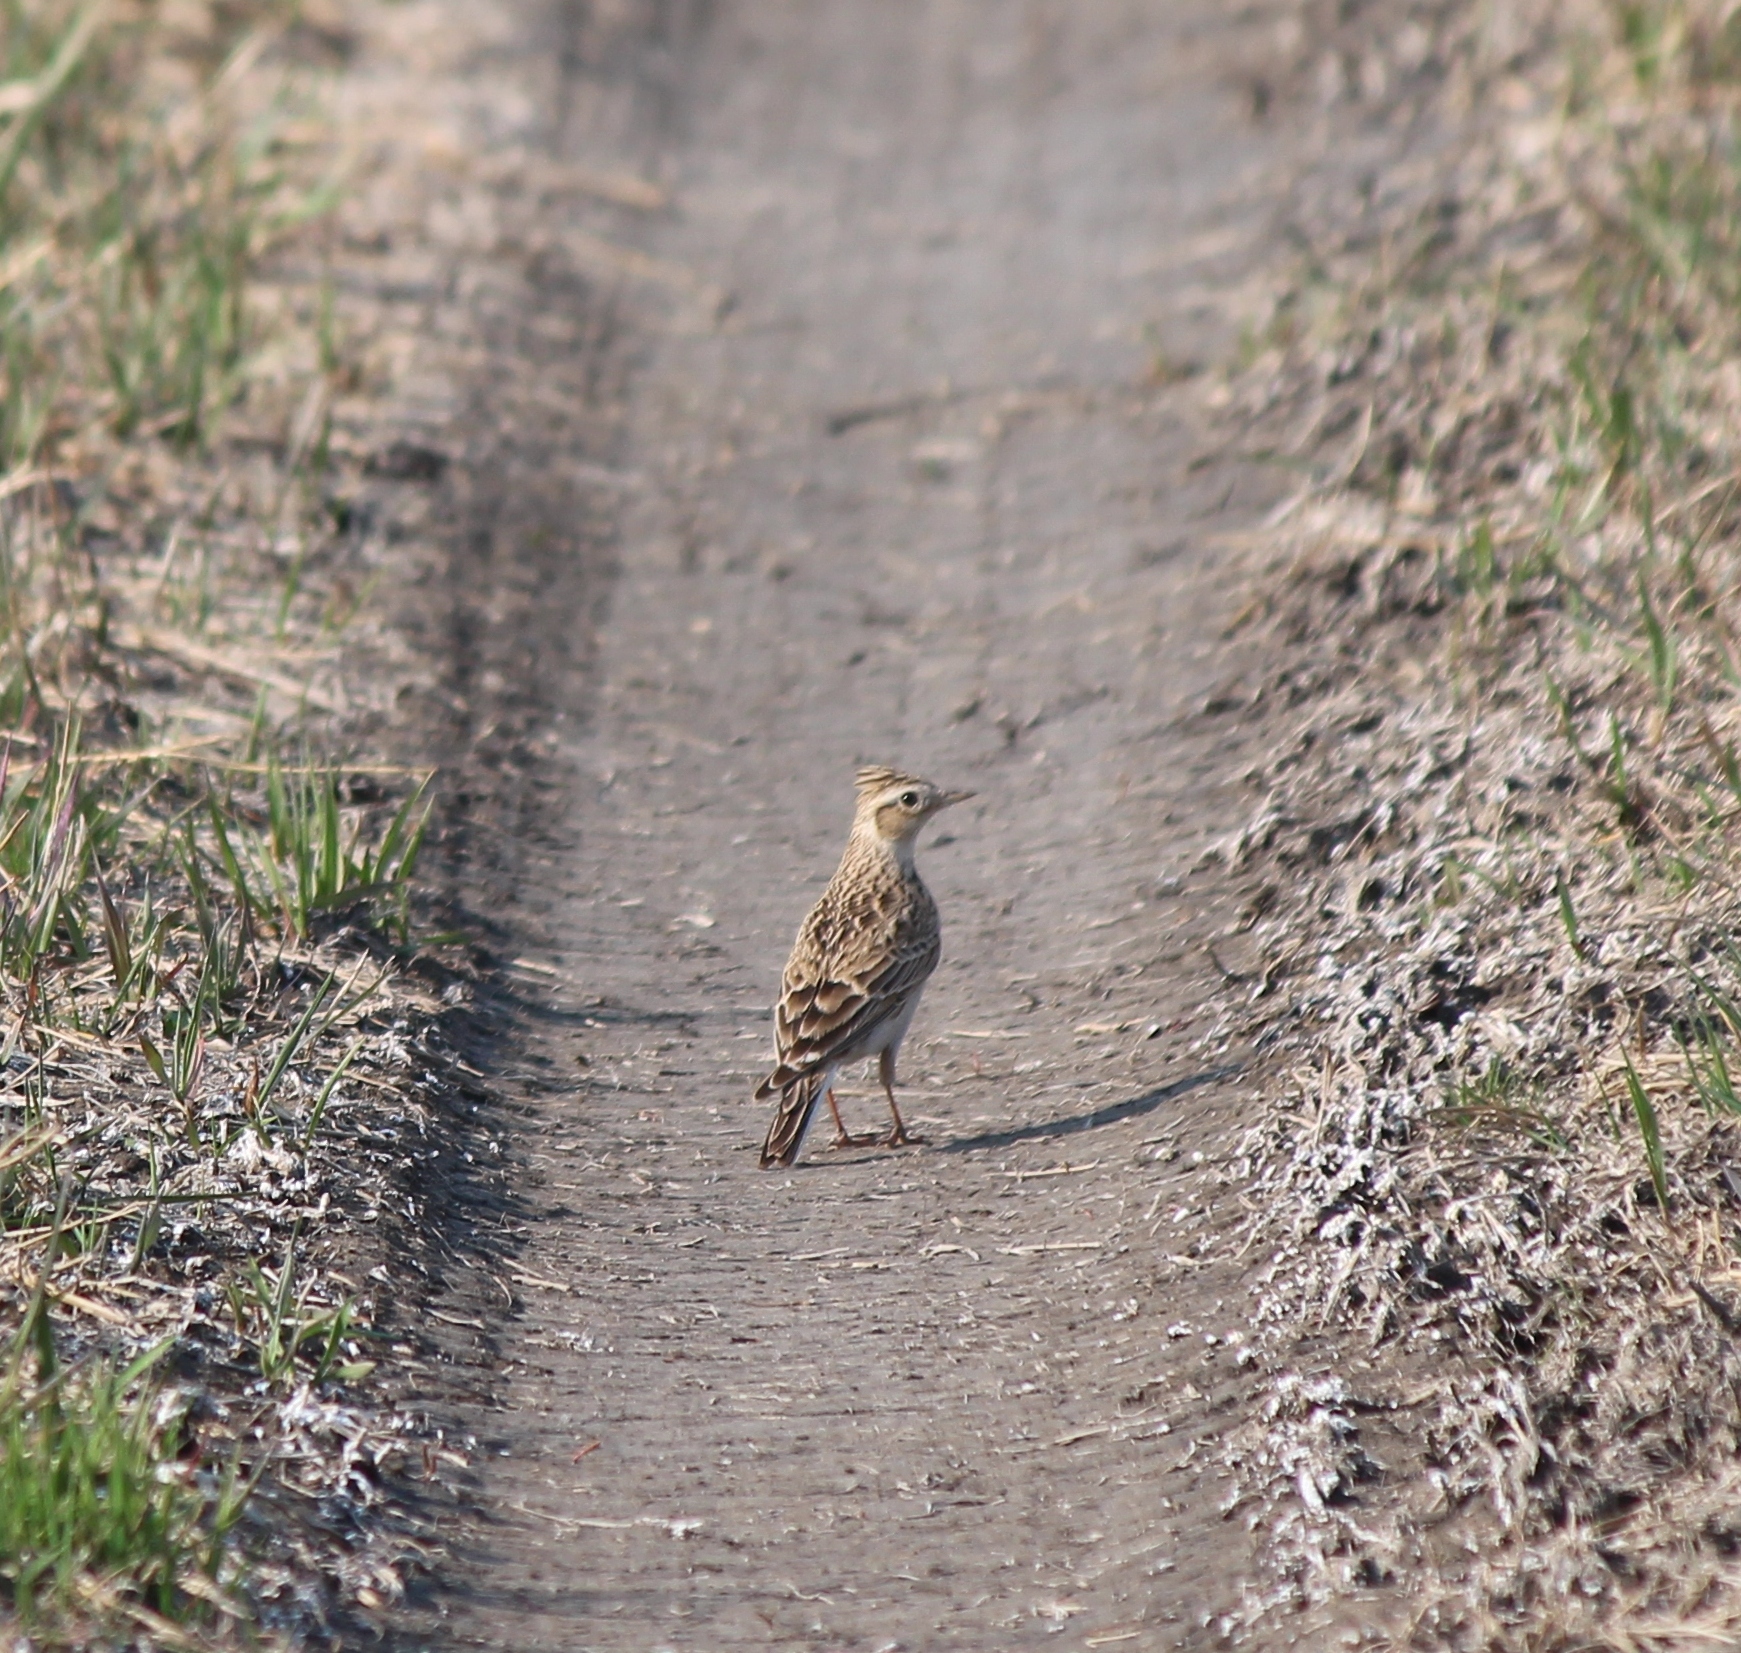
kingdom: Animalia
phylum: Chordata
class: Aves
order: Passeriformes
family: Alaudidae
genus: Alauda
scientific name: Alauda arvensis
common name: Eurasian skylark
